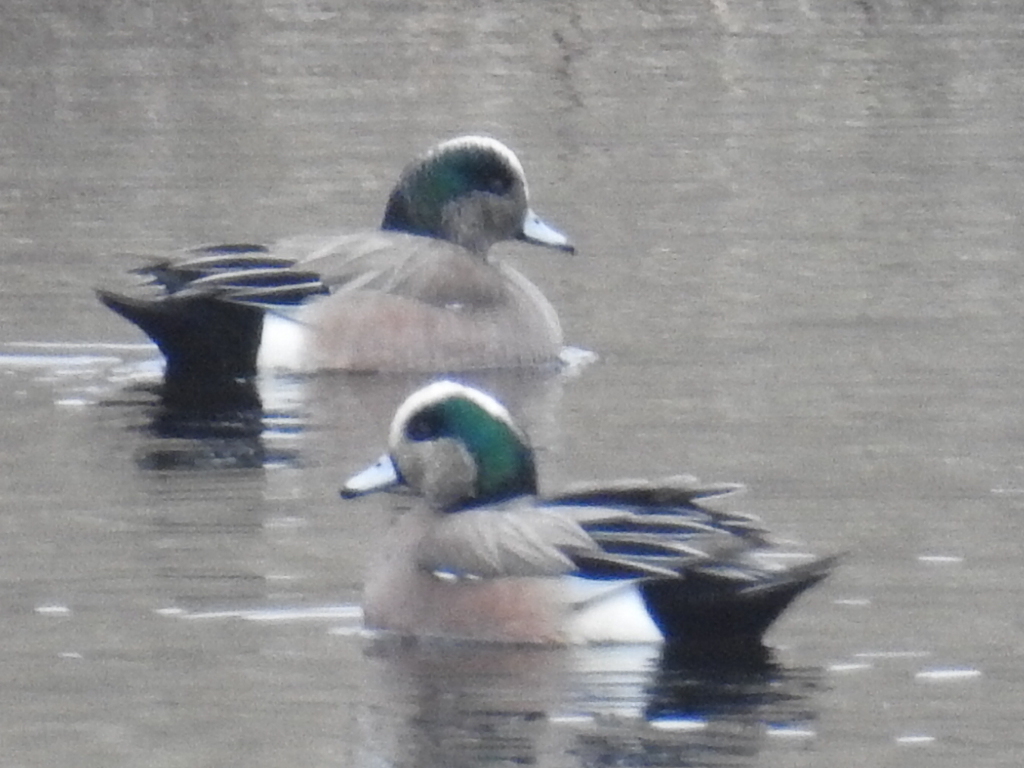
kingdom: Animalia
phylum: Chordata
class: Aves
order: Anseriformes
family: Anatidae
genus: Mareca
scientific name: Mareca americana
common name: American wigeon
